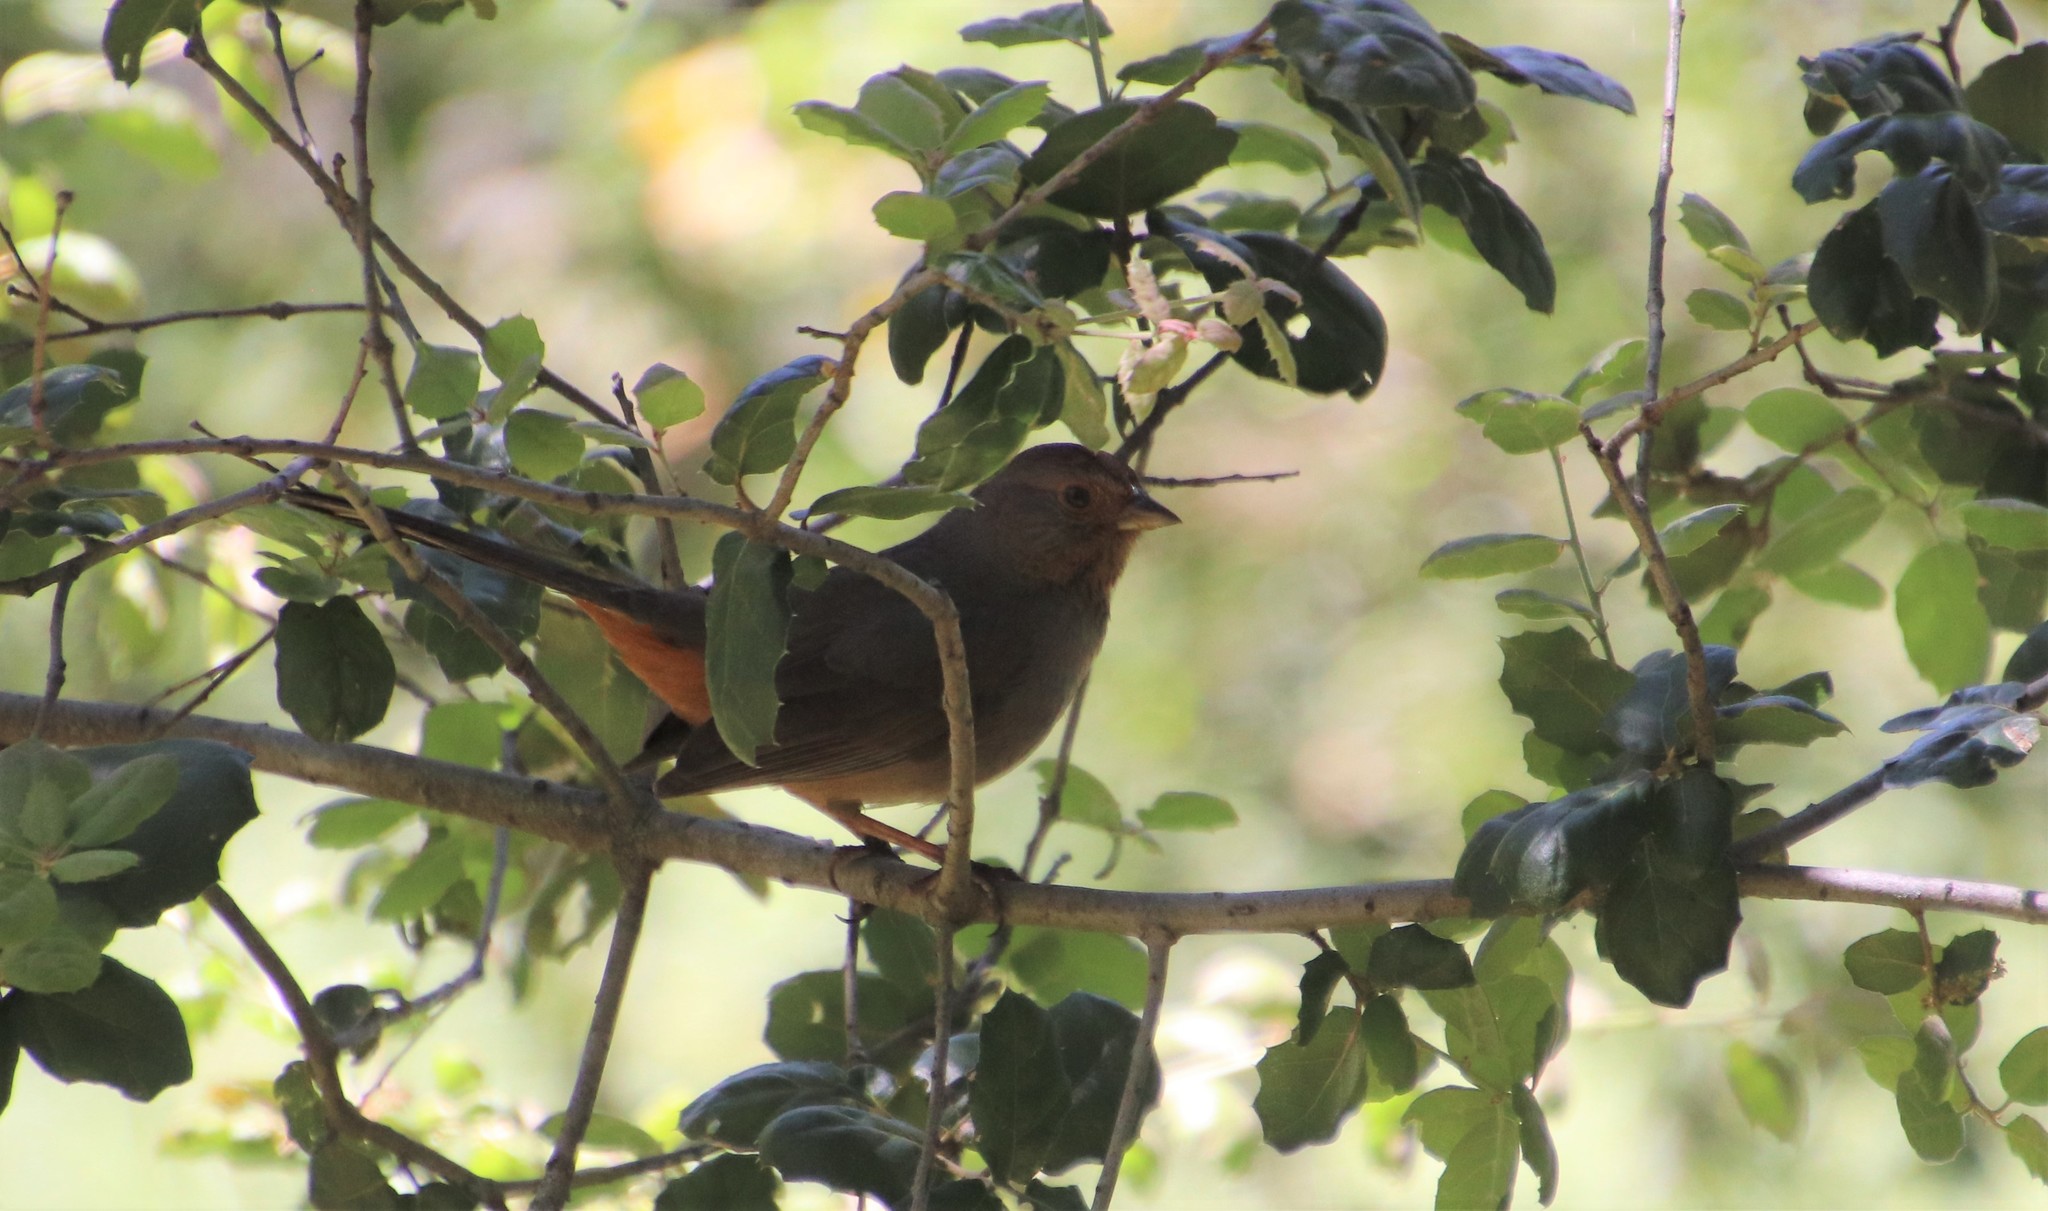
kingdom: Animalia
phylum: Chordata
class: Aves
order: Passeriformes
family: Passerellidae
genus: Melozone
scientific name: Melozone crissalis
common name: California towhee
